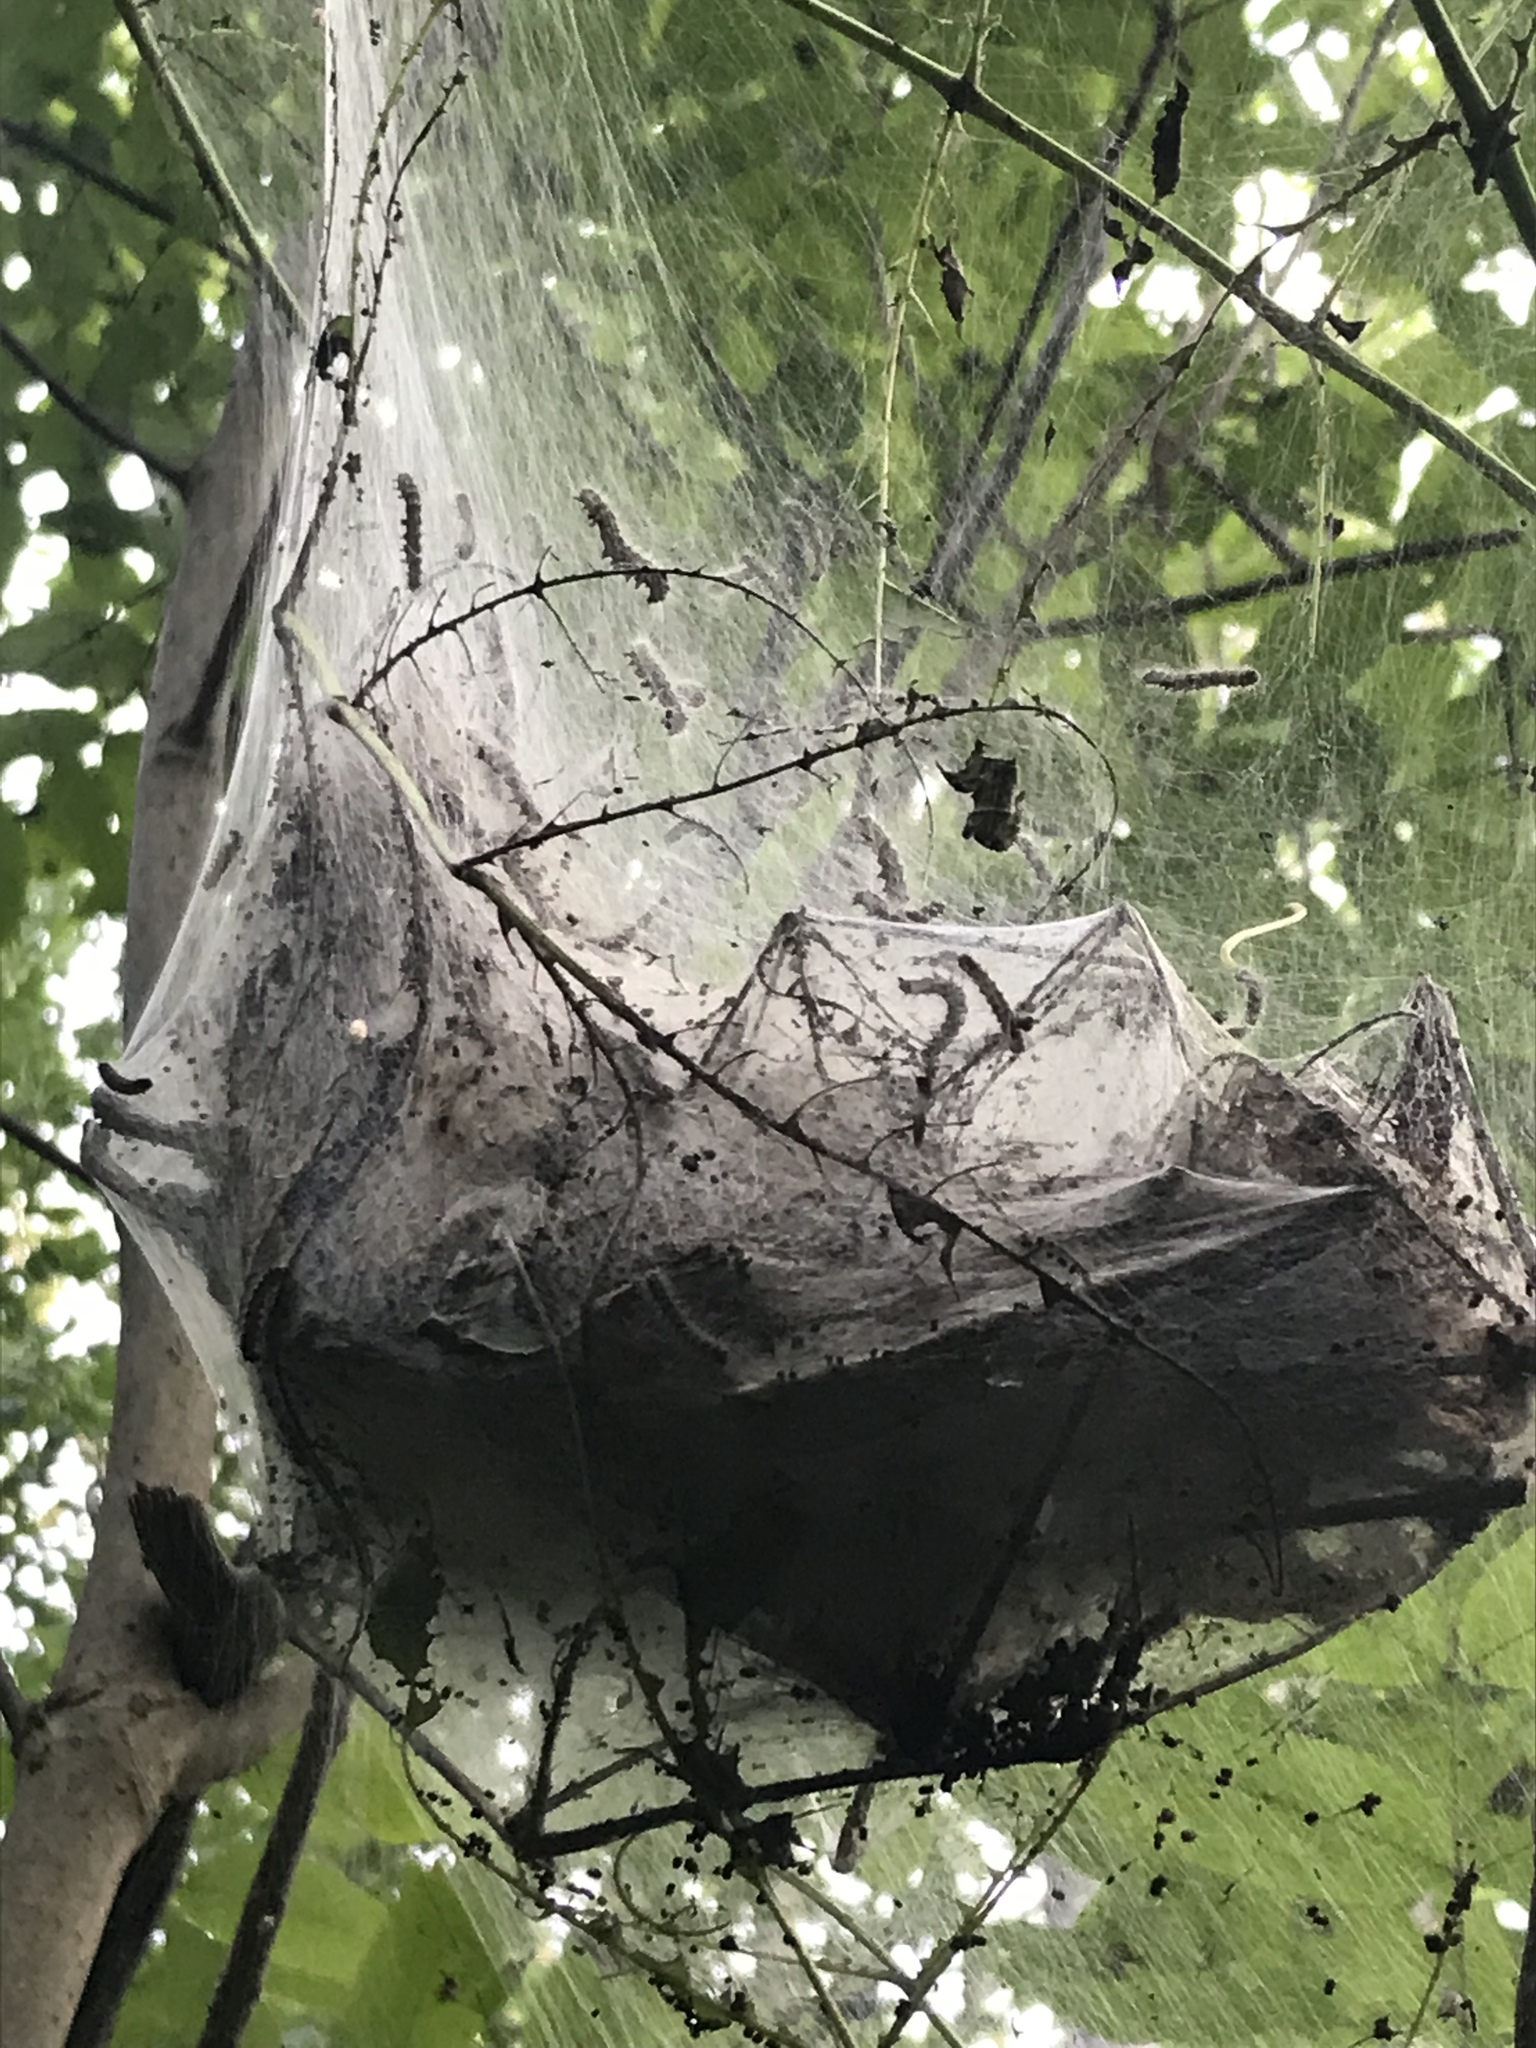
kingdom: Animalia
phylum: Arthropoda
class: Insecta
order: Lepidoptera
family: Erebidae
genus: Hyphantria
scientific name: Hyphantria cunea
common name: American white moth
